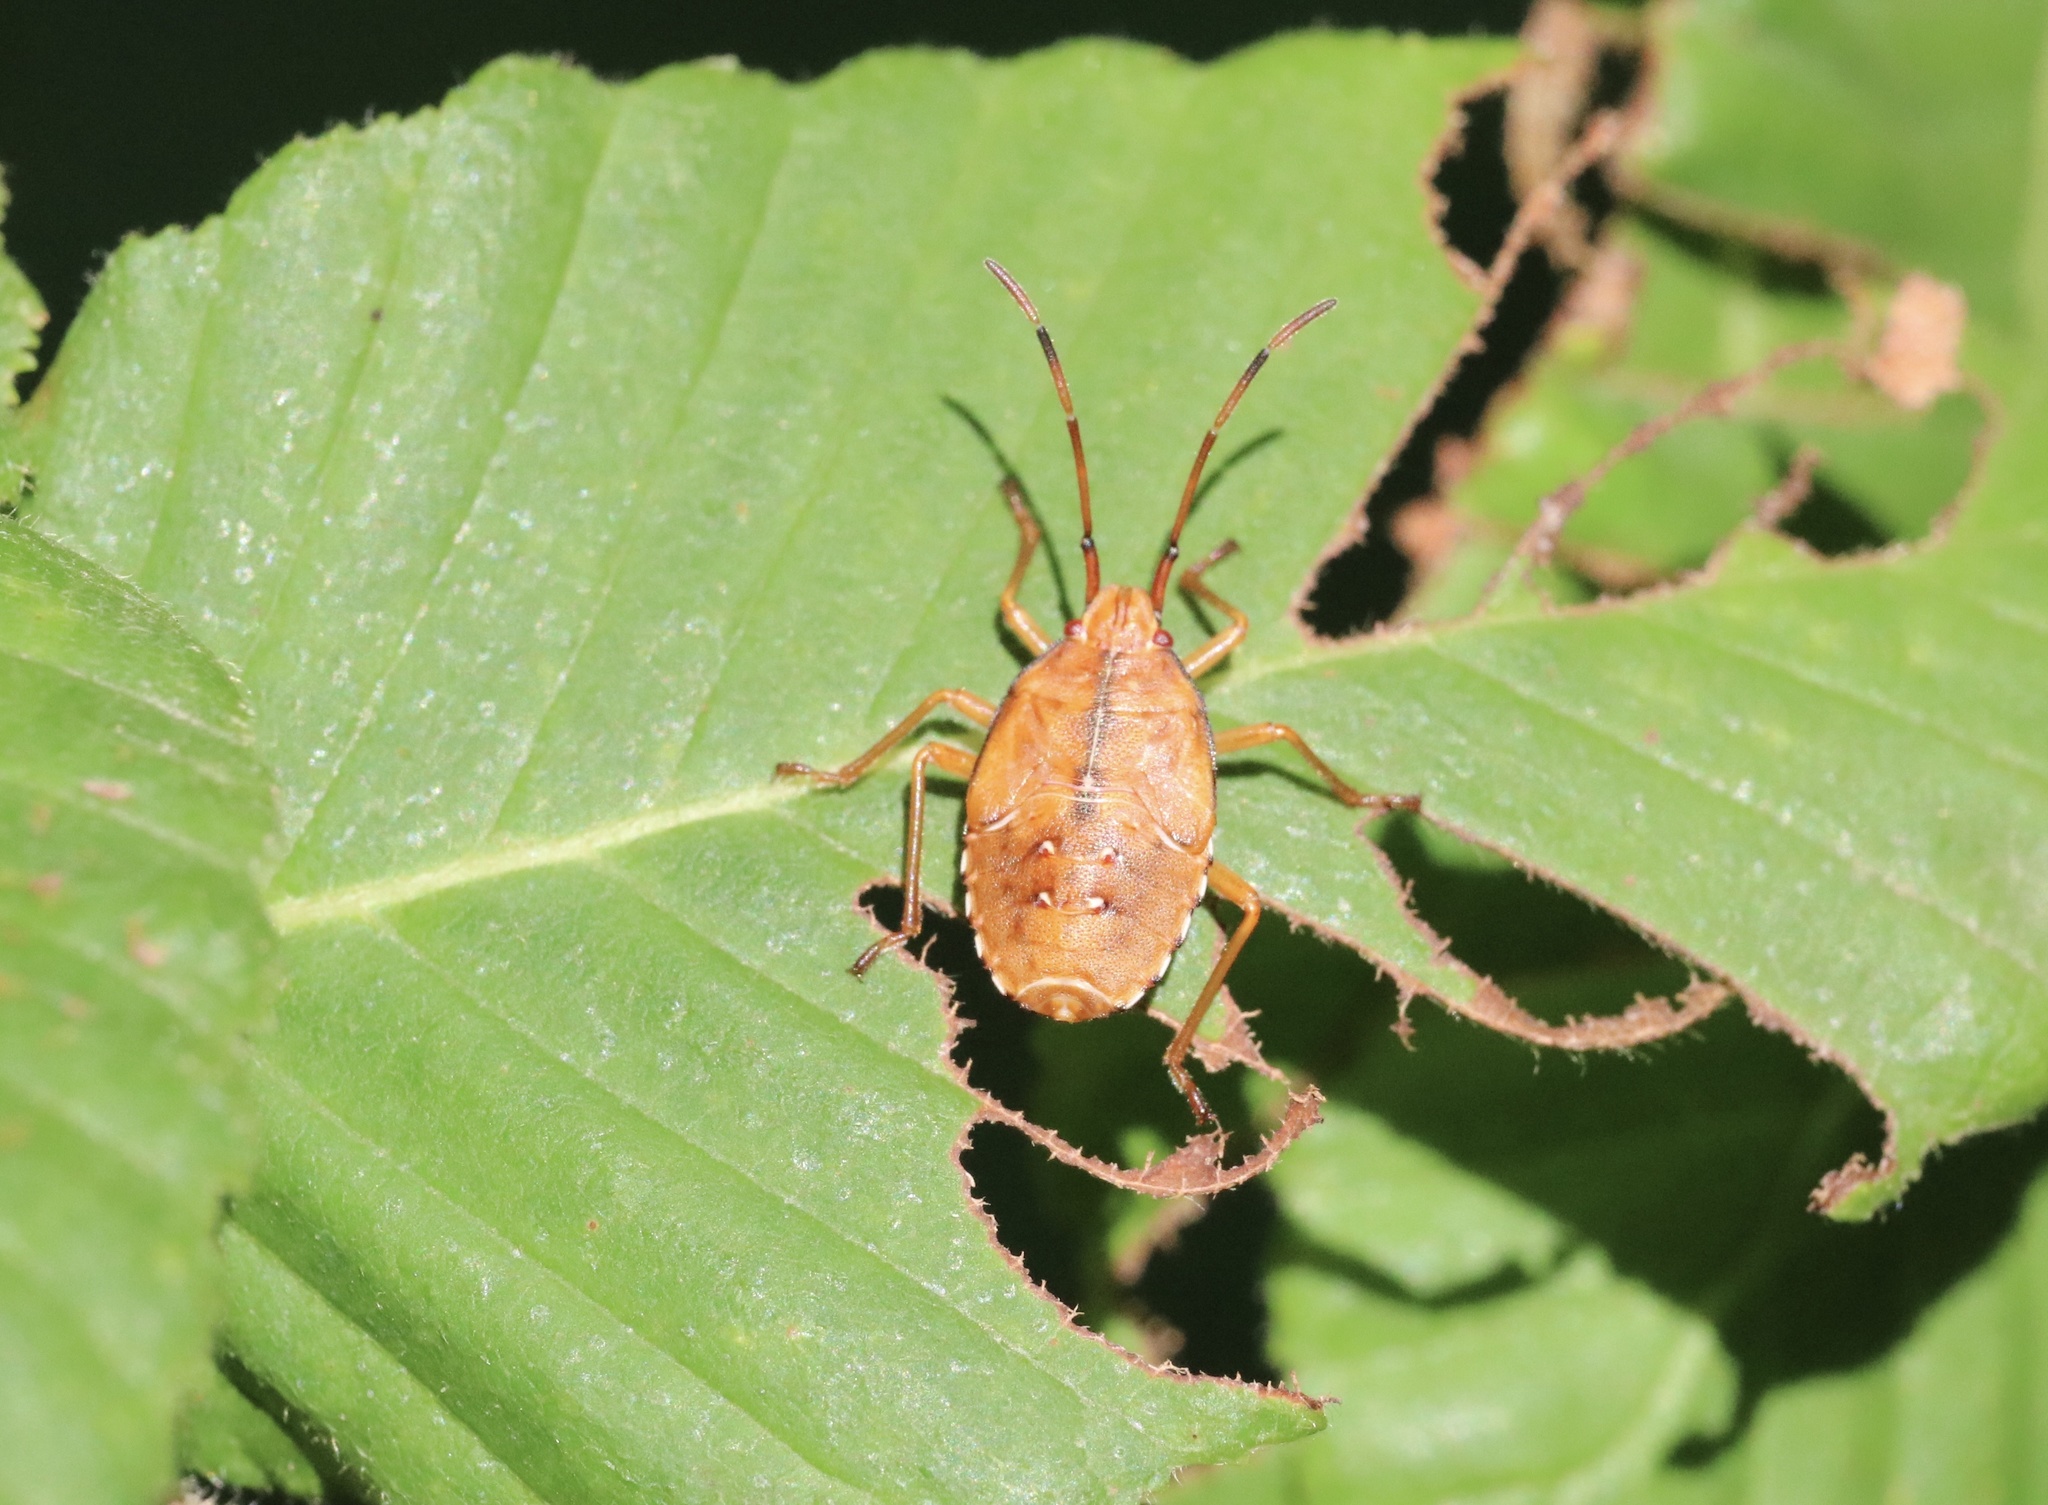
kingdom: Animalia
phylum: Arthropoda
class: Insecta
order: Hemiptera
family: Acanthosomatidae
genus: Planois
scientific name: Planois gayi
